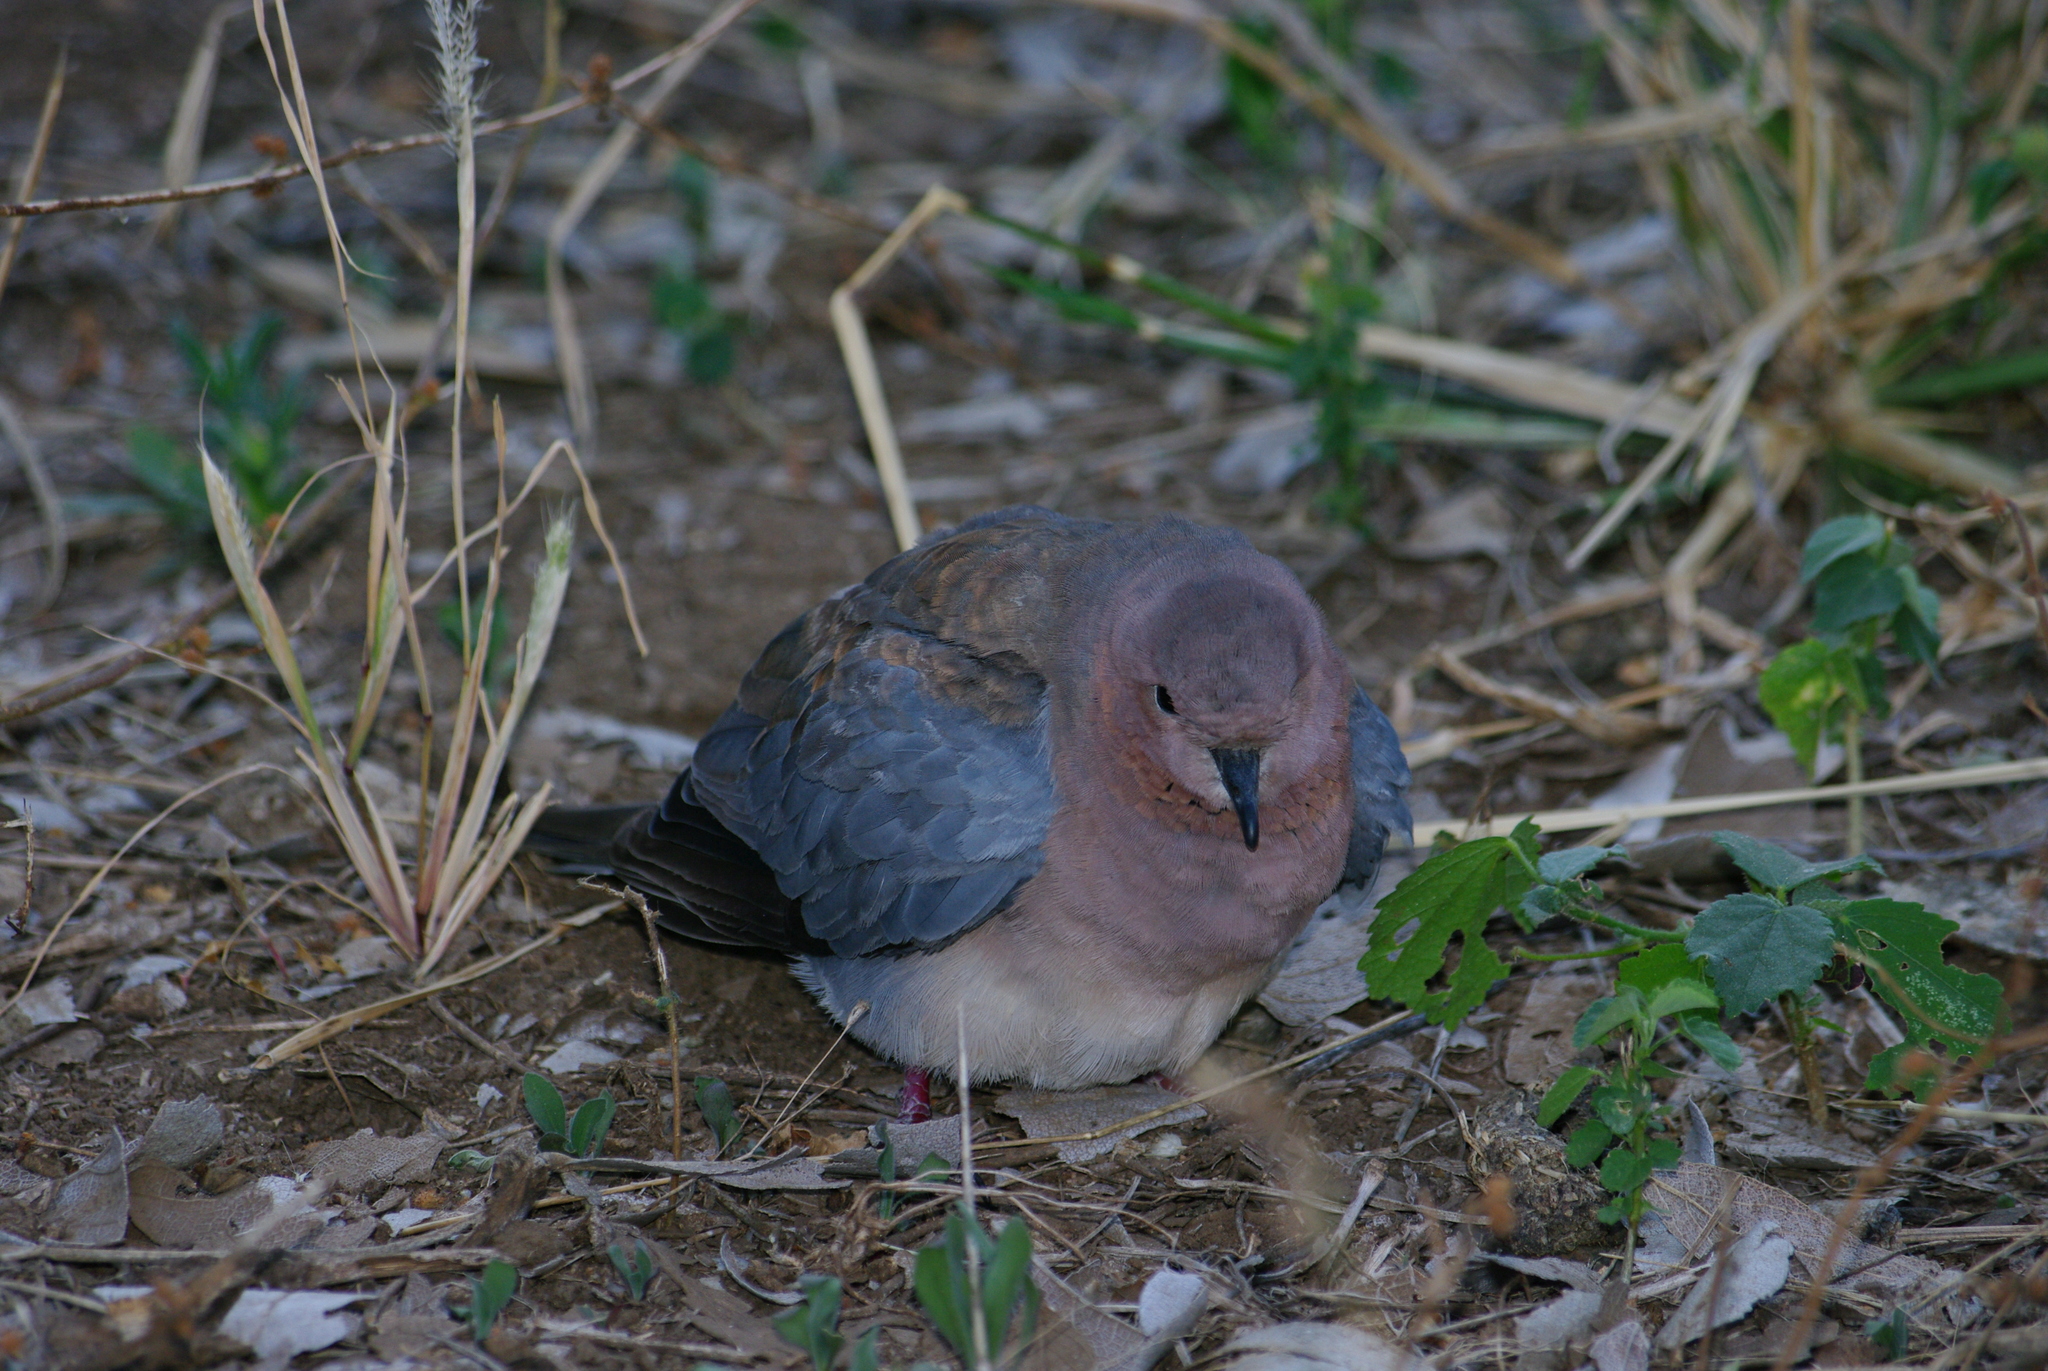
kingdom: Animalia
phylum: Chordata
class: Aves
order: Columbiformes
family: Columbidae
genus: Spilopelia
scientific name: Spilopelia senegalensis
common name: Laughing dove
